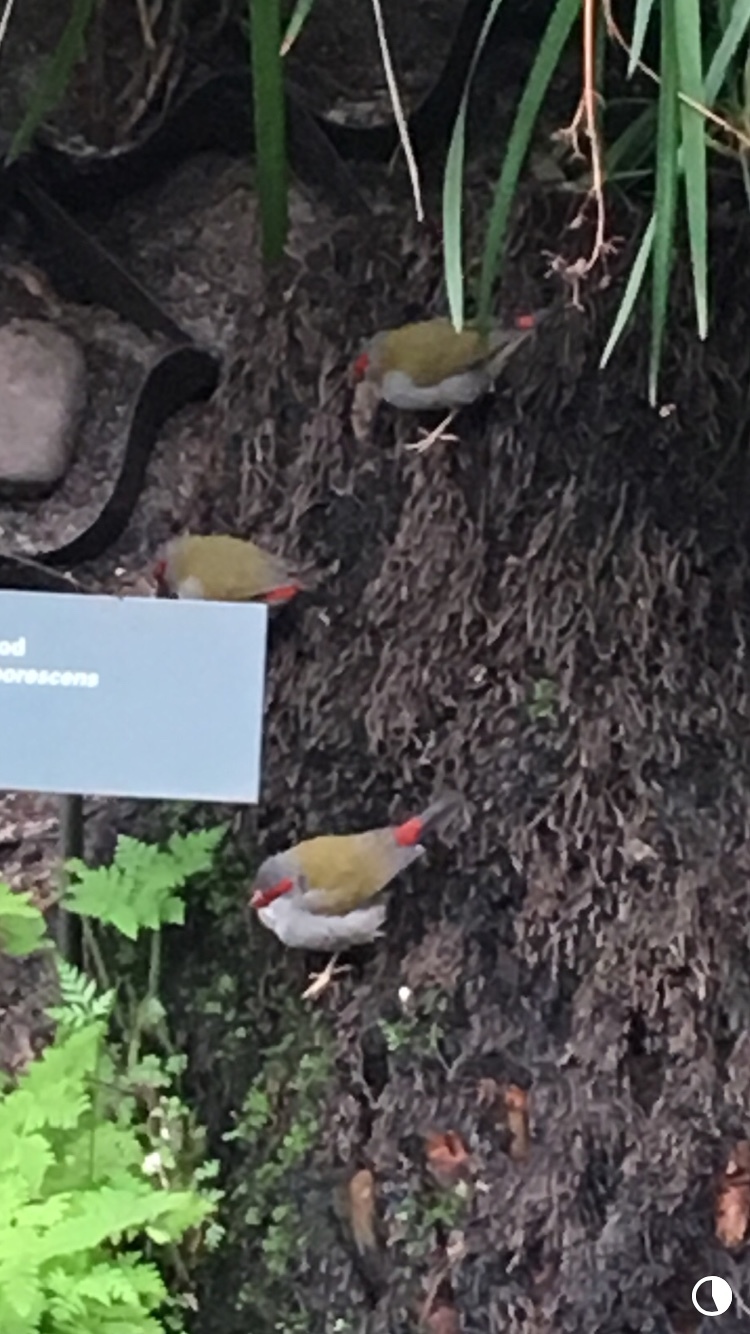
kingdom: Animalia
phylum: Chordata
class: Aves
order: Passeriformes
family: Estrildidae
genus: Neochmia
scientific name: Neochmia temporalis
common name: Red-browed finch
